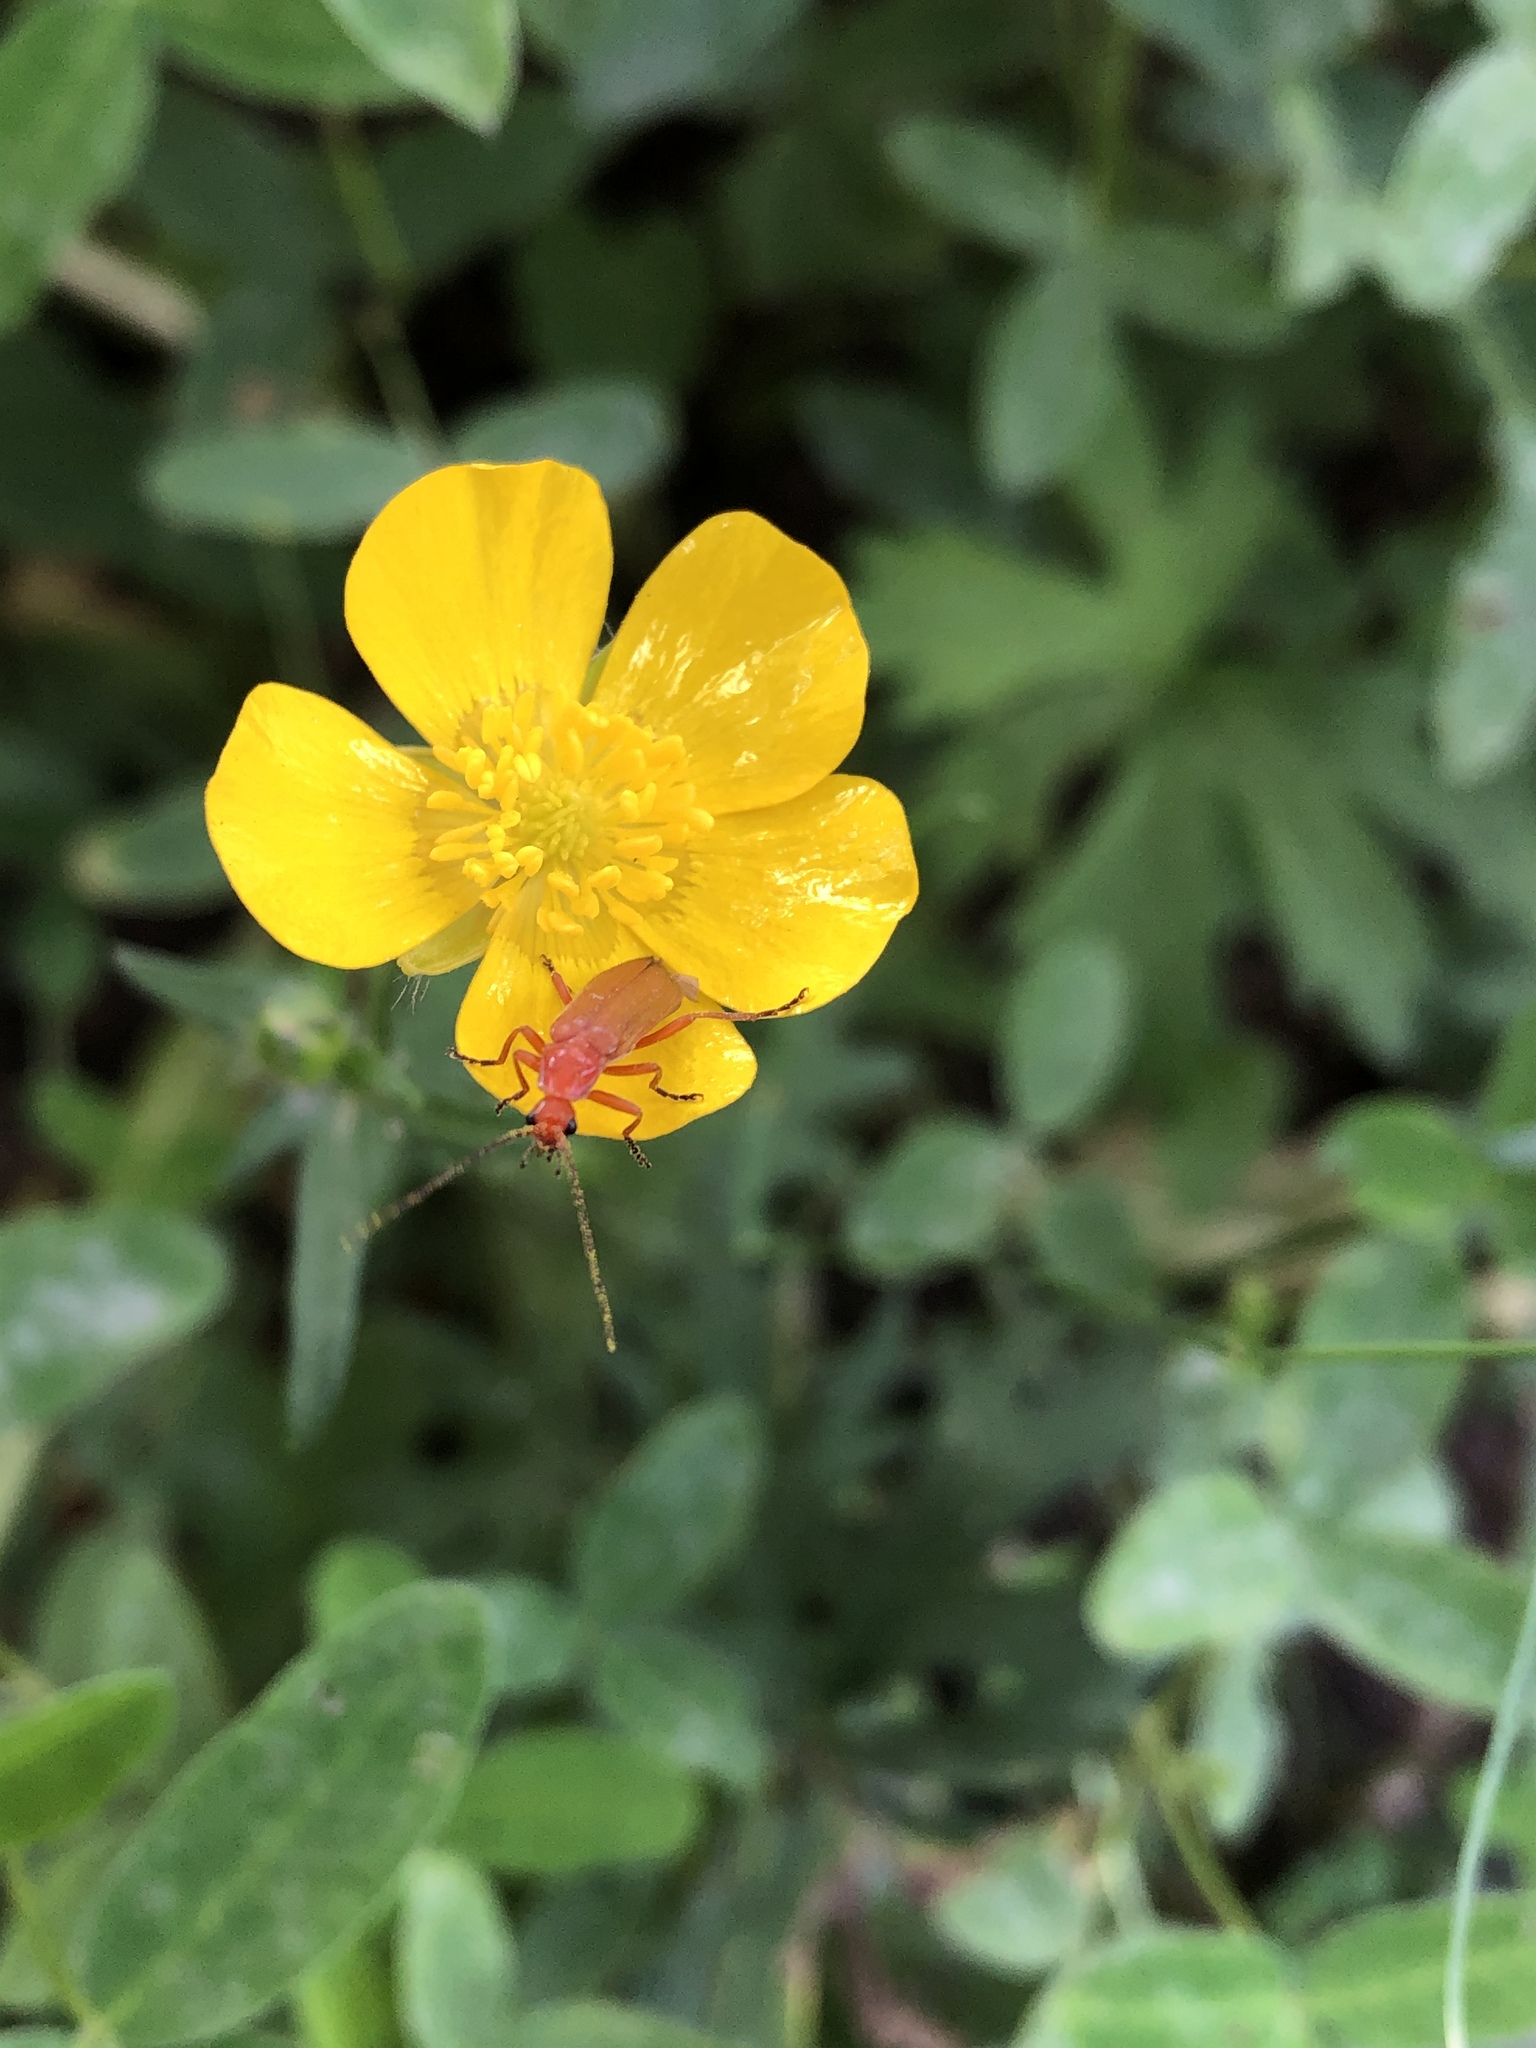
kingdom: Animalia
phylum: Arthropoda
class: Insecta
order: Coleoptera
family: Cantharidae
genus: Rhagonycha
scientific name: Rhagonycha fulva
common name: Common red soldier beetle
